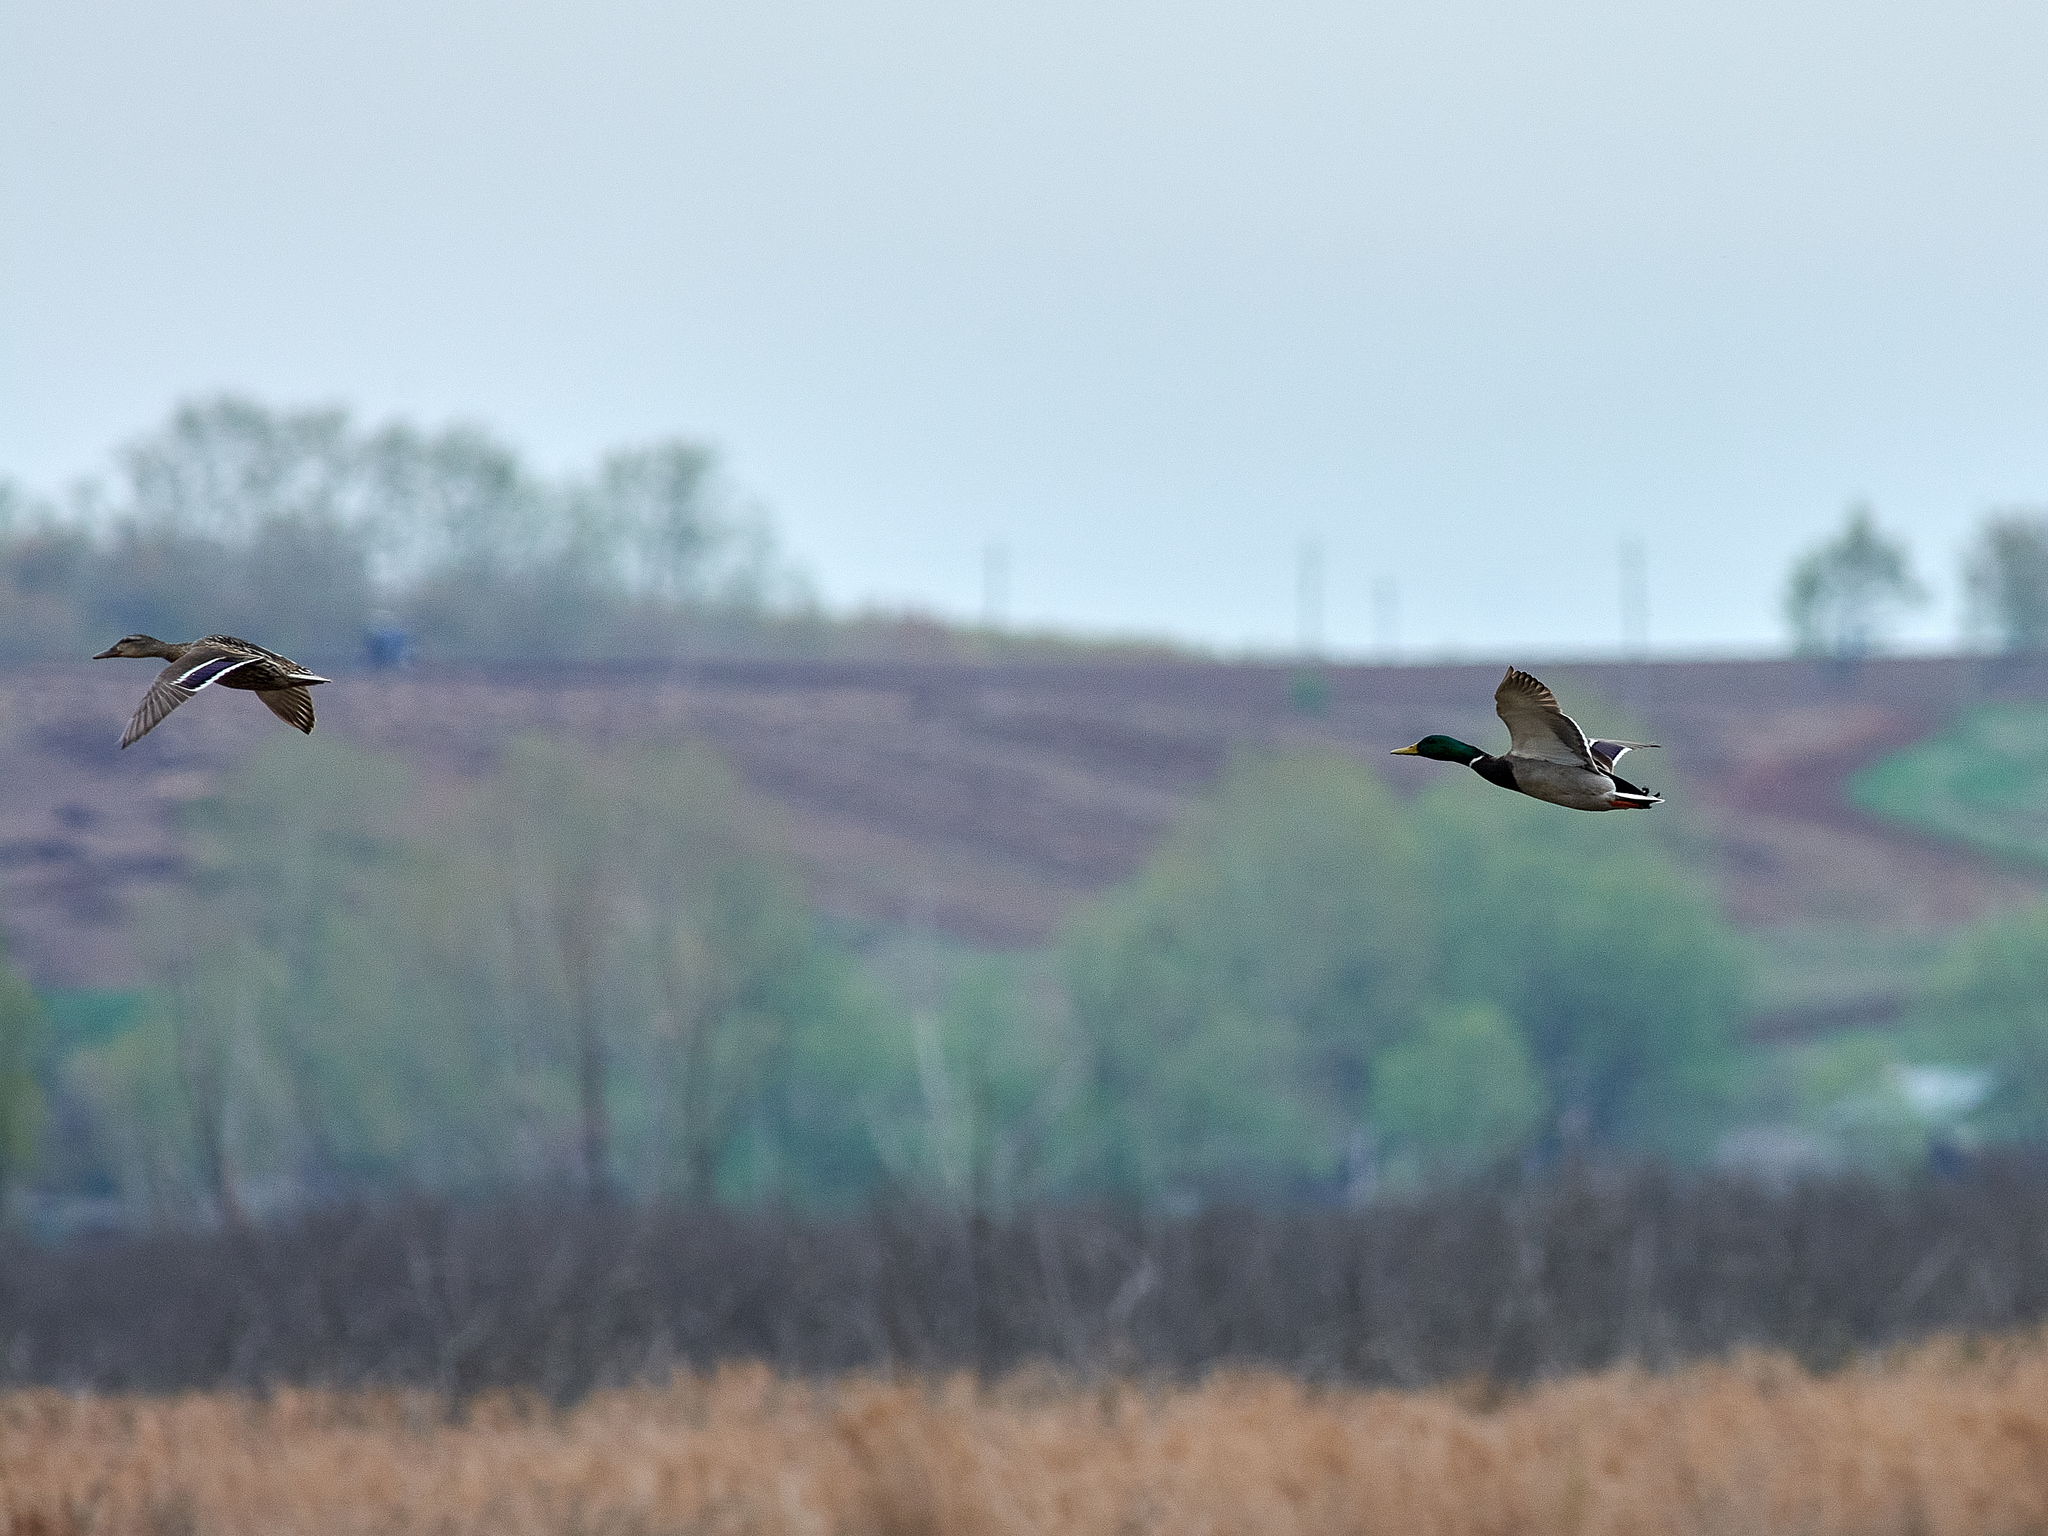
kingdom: Animalia
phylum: Chordata
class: Aves
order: Anseriformes
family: Anatidae
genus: Anas
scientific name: Anas platyrhynchos
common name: Mallard
